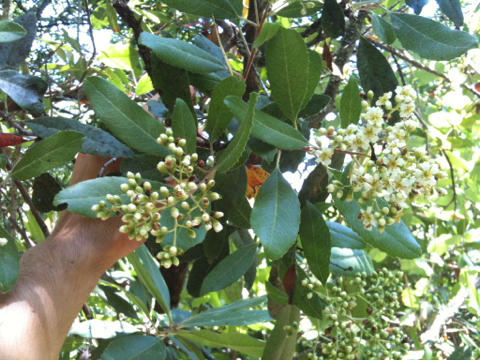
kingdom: Plantae
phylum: Tracheophyta
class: Magnoliopsida
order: Rosales
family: Rosaceae
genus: Heteromeles
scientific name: Heteromeles arbutifolia
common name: California-holly
